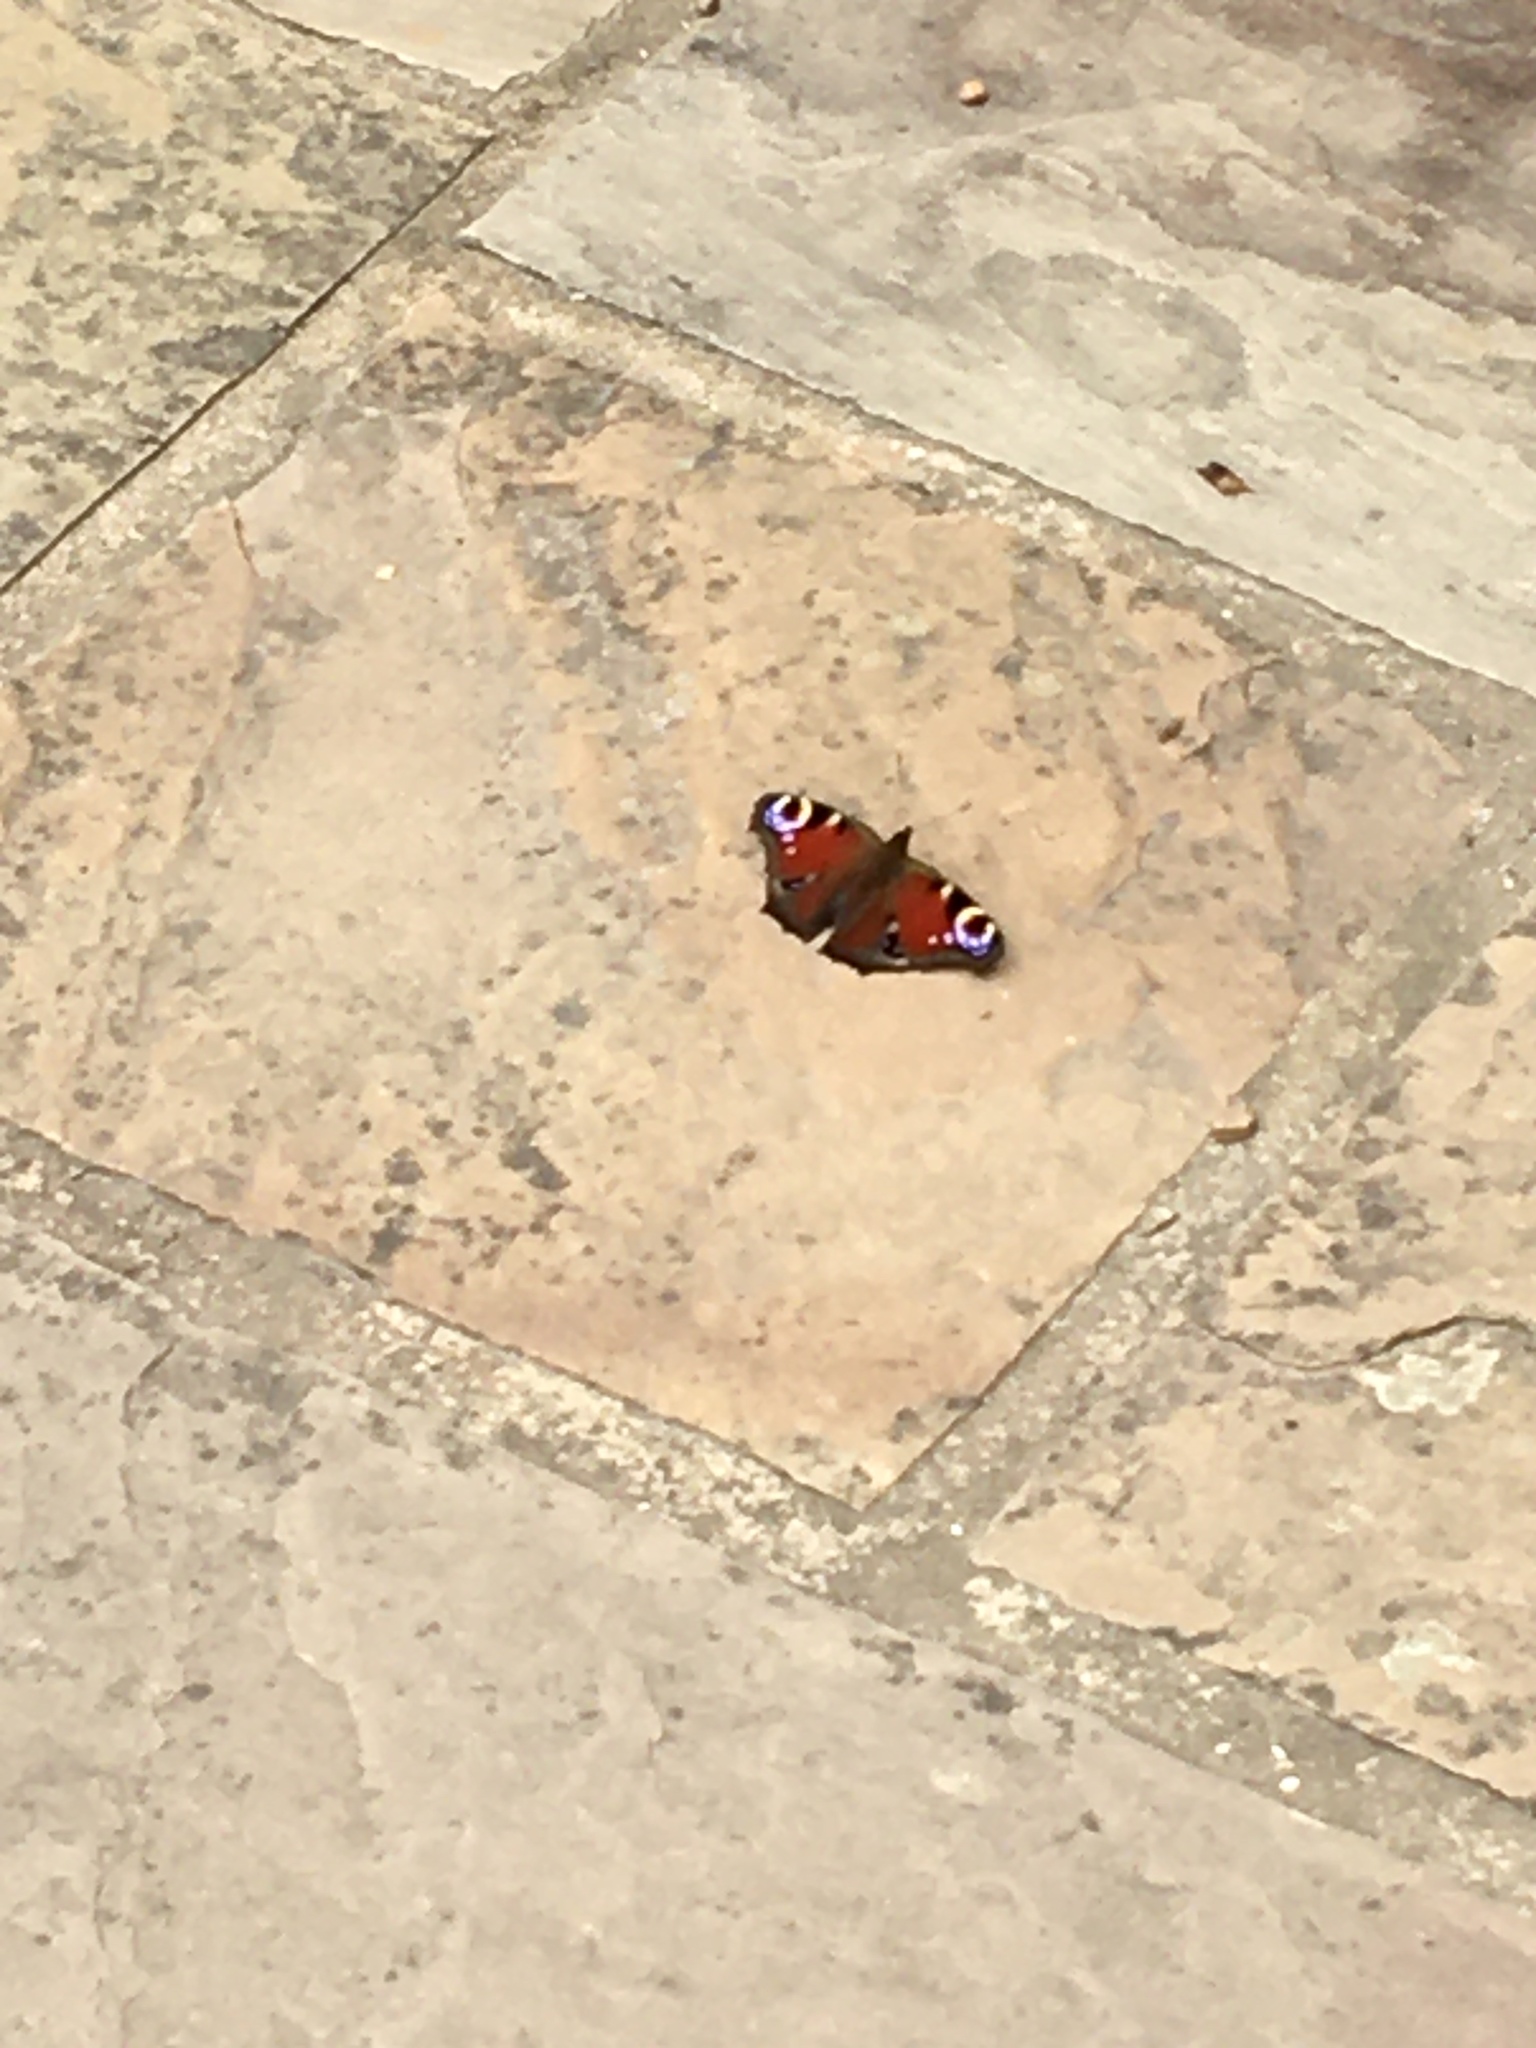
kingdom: Animalia
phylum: Arthropoda
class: Insecta
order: Lepidoptera
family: Nymphalidae
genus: Aglais
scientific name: Aglais io
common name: Peacock
